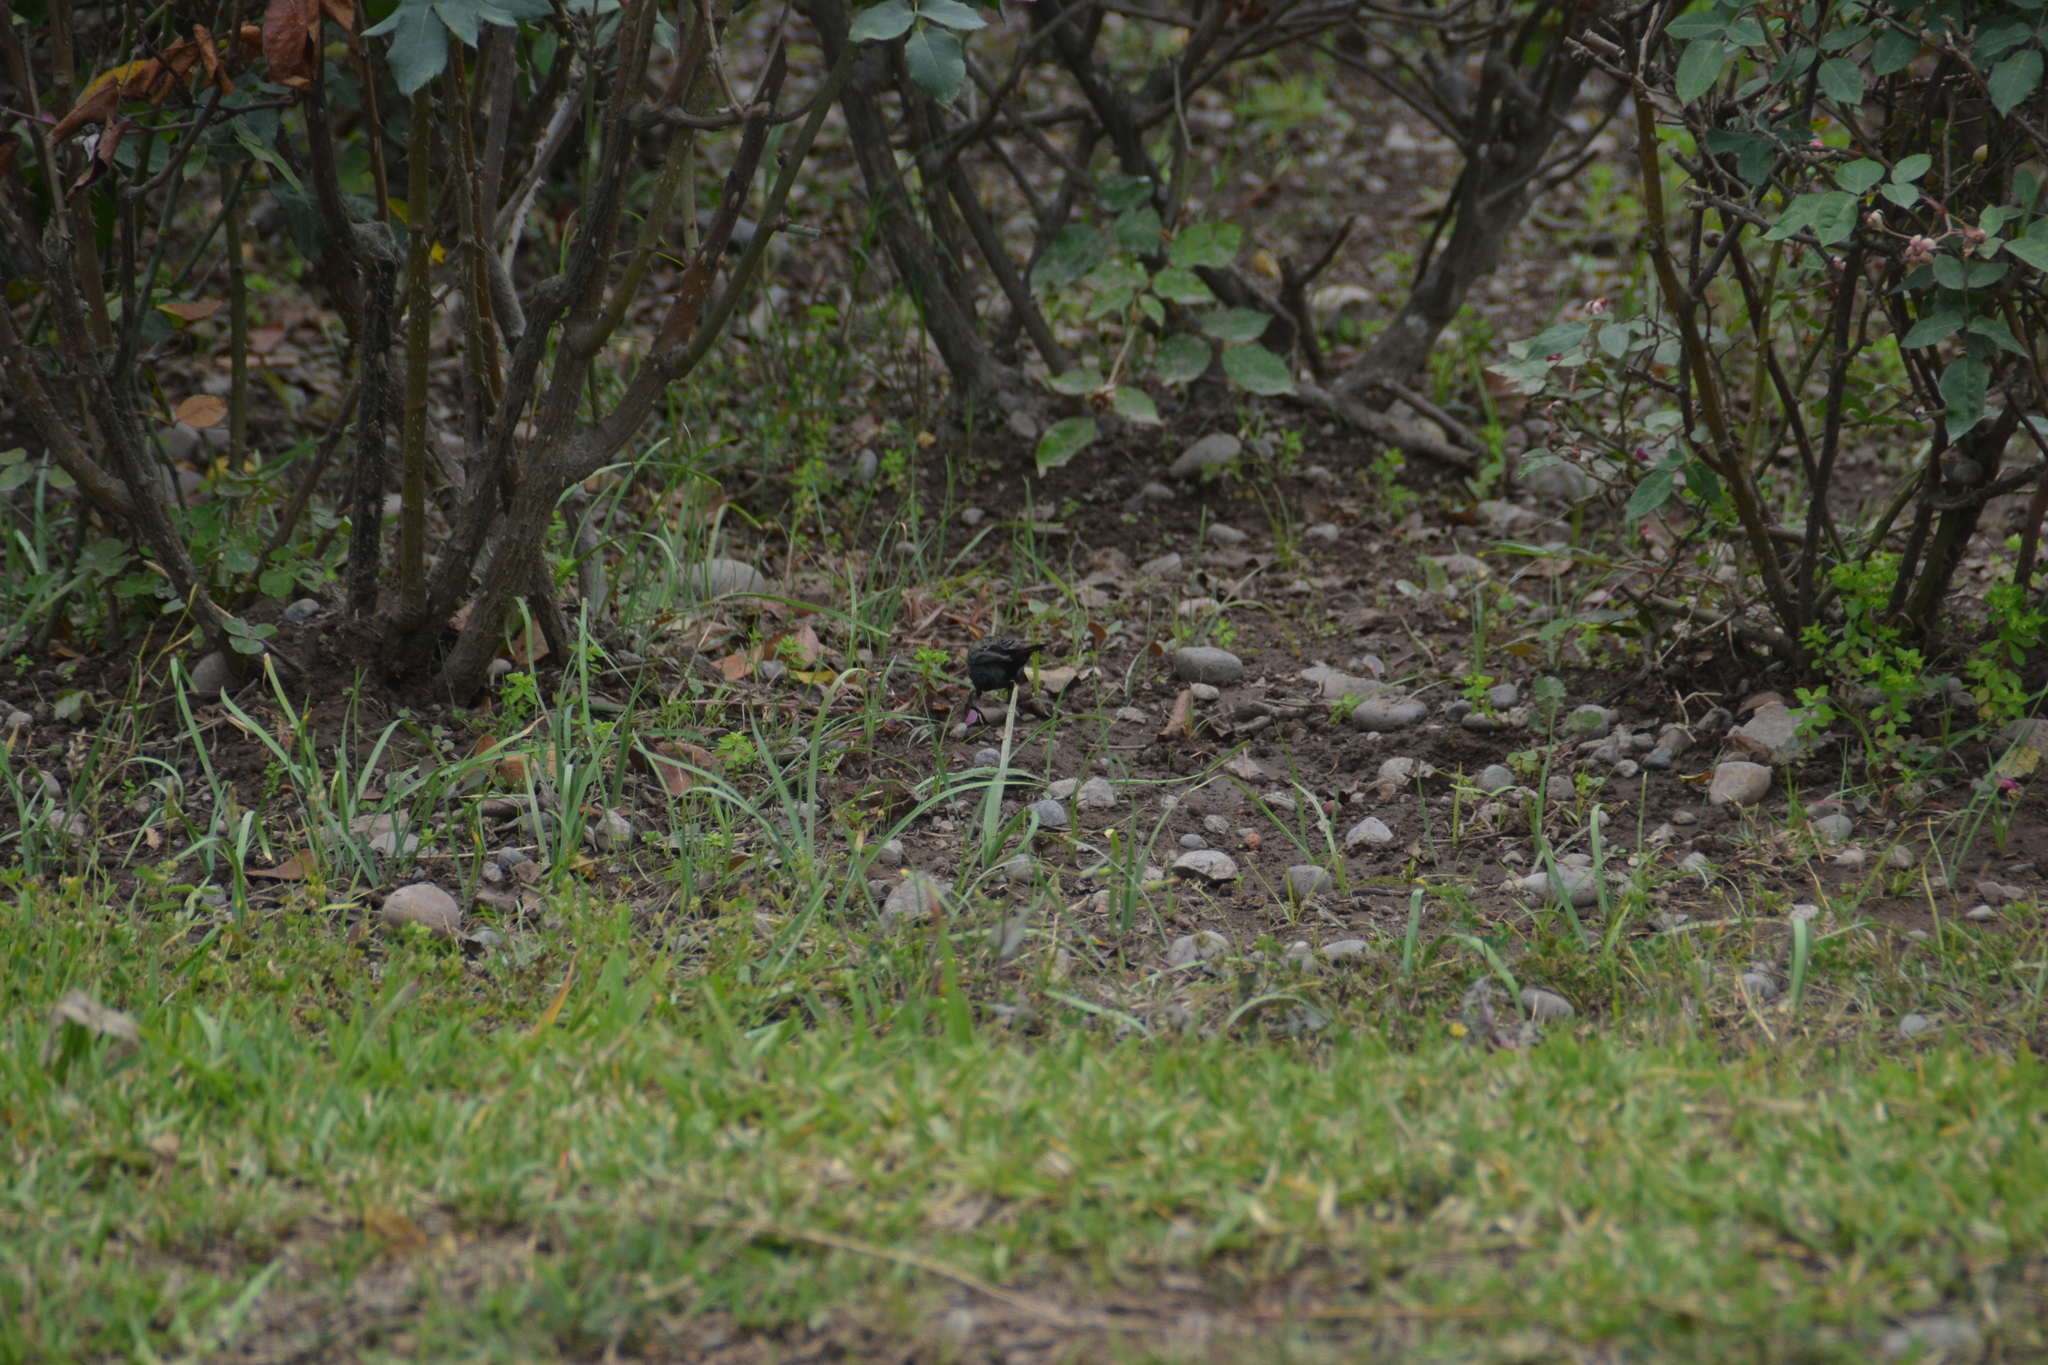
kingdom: Animalia
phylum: Chordata
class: Aves
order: Passeriformes
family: Thraupidae
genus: Volatinia
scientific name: Volatinia jacarina
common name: Blue-black grassquit
